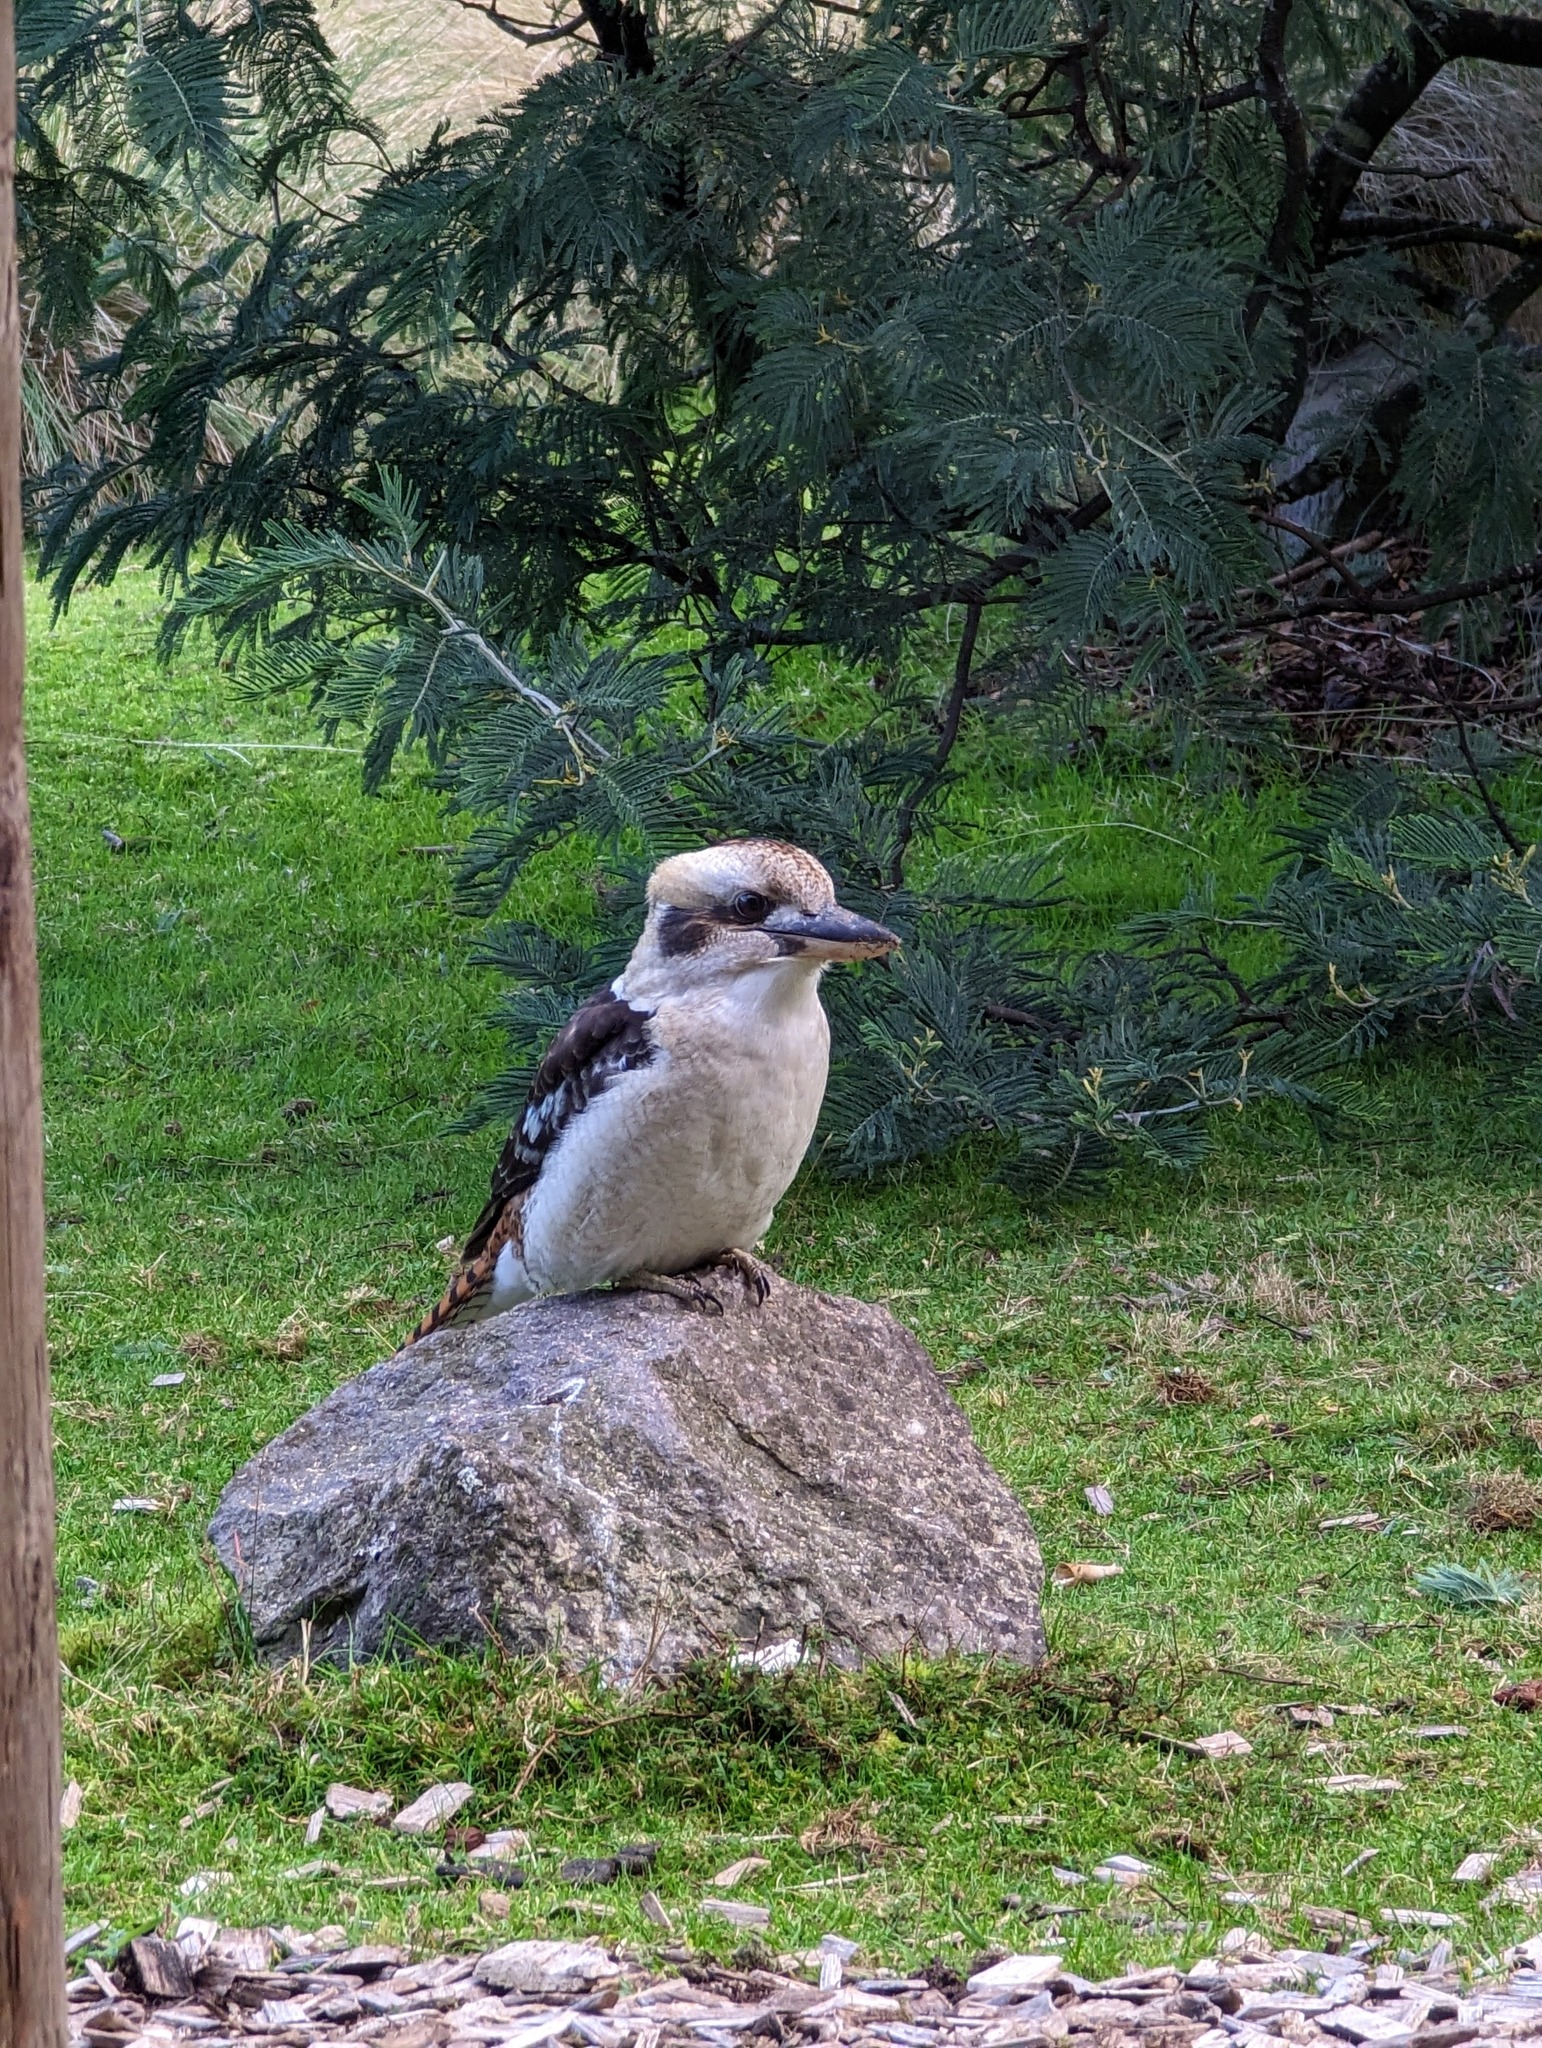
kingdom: Animalia
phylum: Chordata
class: Aves
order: Coraciiformes
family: Alcedinidae
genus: Dacelo
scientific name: Dacelo novaeguineae
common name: Laughing kookaburra
